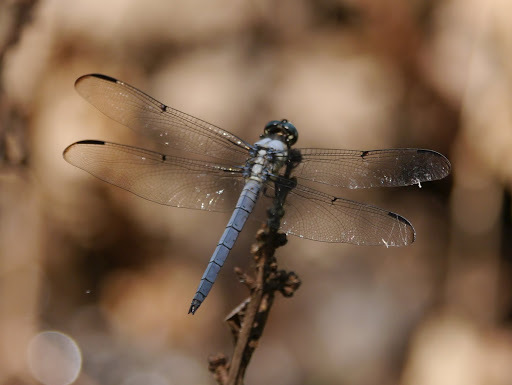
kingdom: Animalia
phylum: Arthropoda
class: Insecta
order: Odonata
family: Libellulidae
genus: Libellula
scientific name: Libellula vibrans
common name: Great blue skimmer
